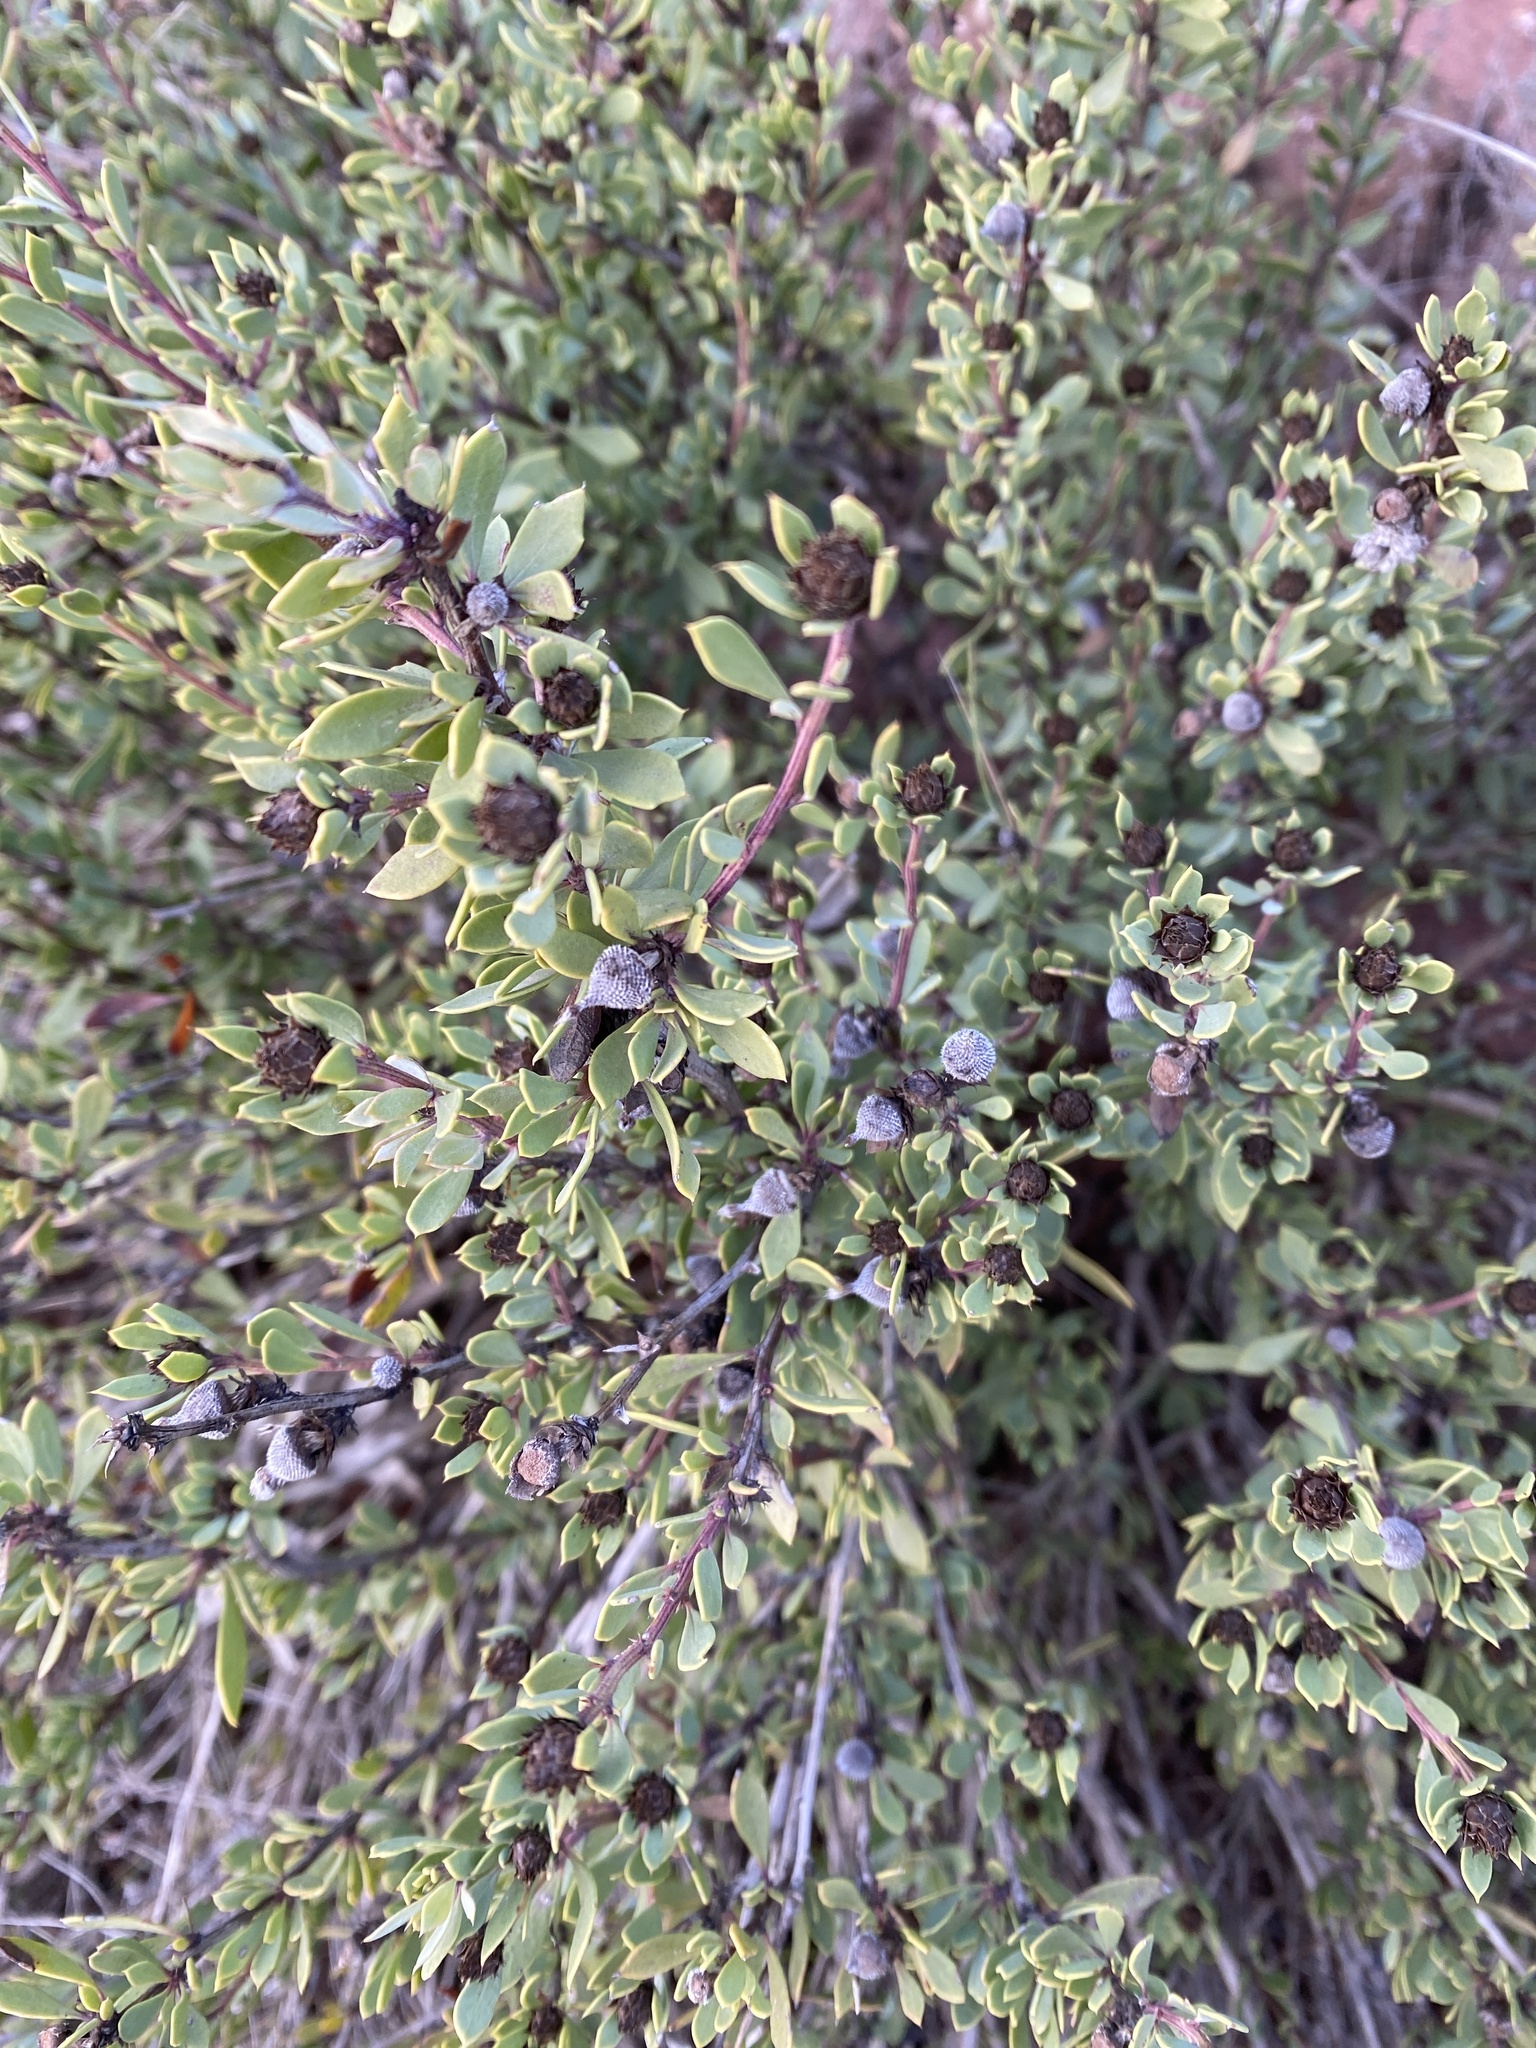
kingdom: Plantae
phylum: Tracheophyta
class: Magnoliopsida
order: Lamiales
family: Plantaginaceae
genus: Globularia
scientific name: Globularia alypum
